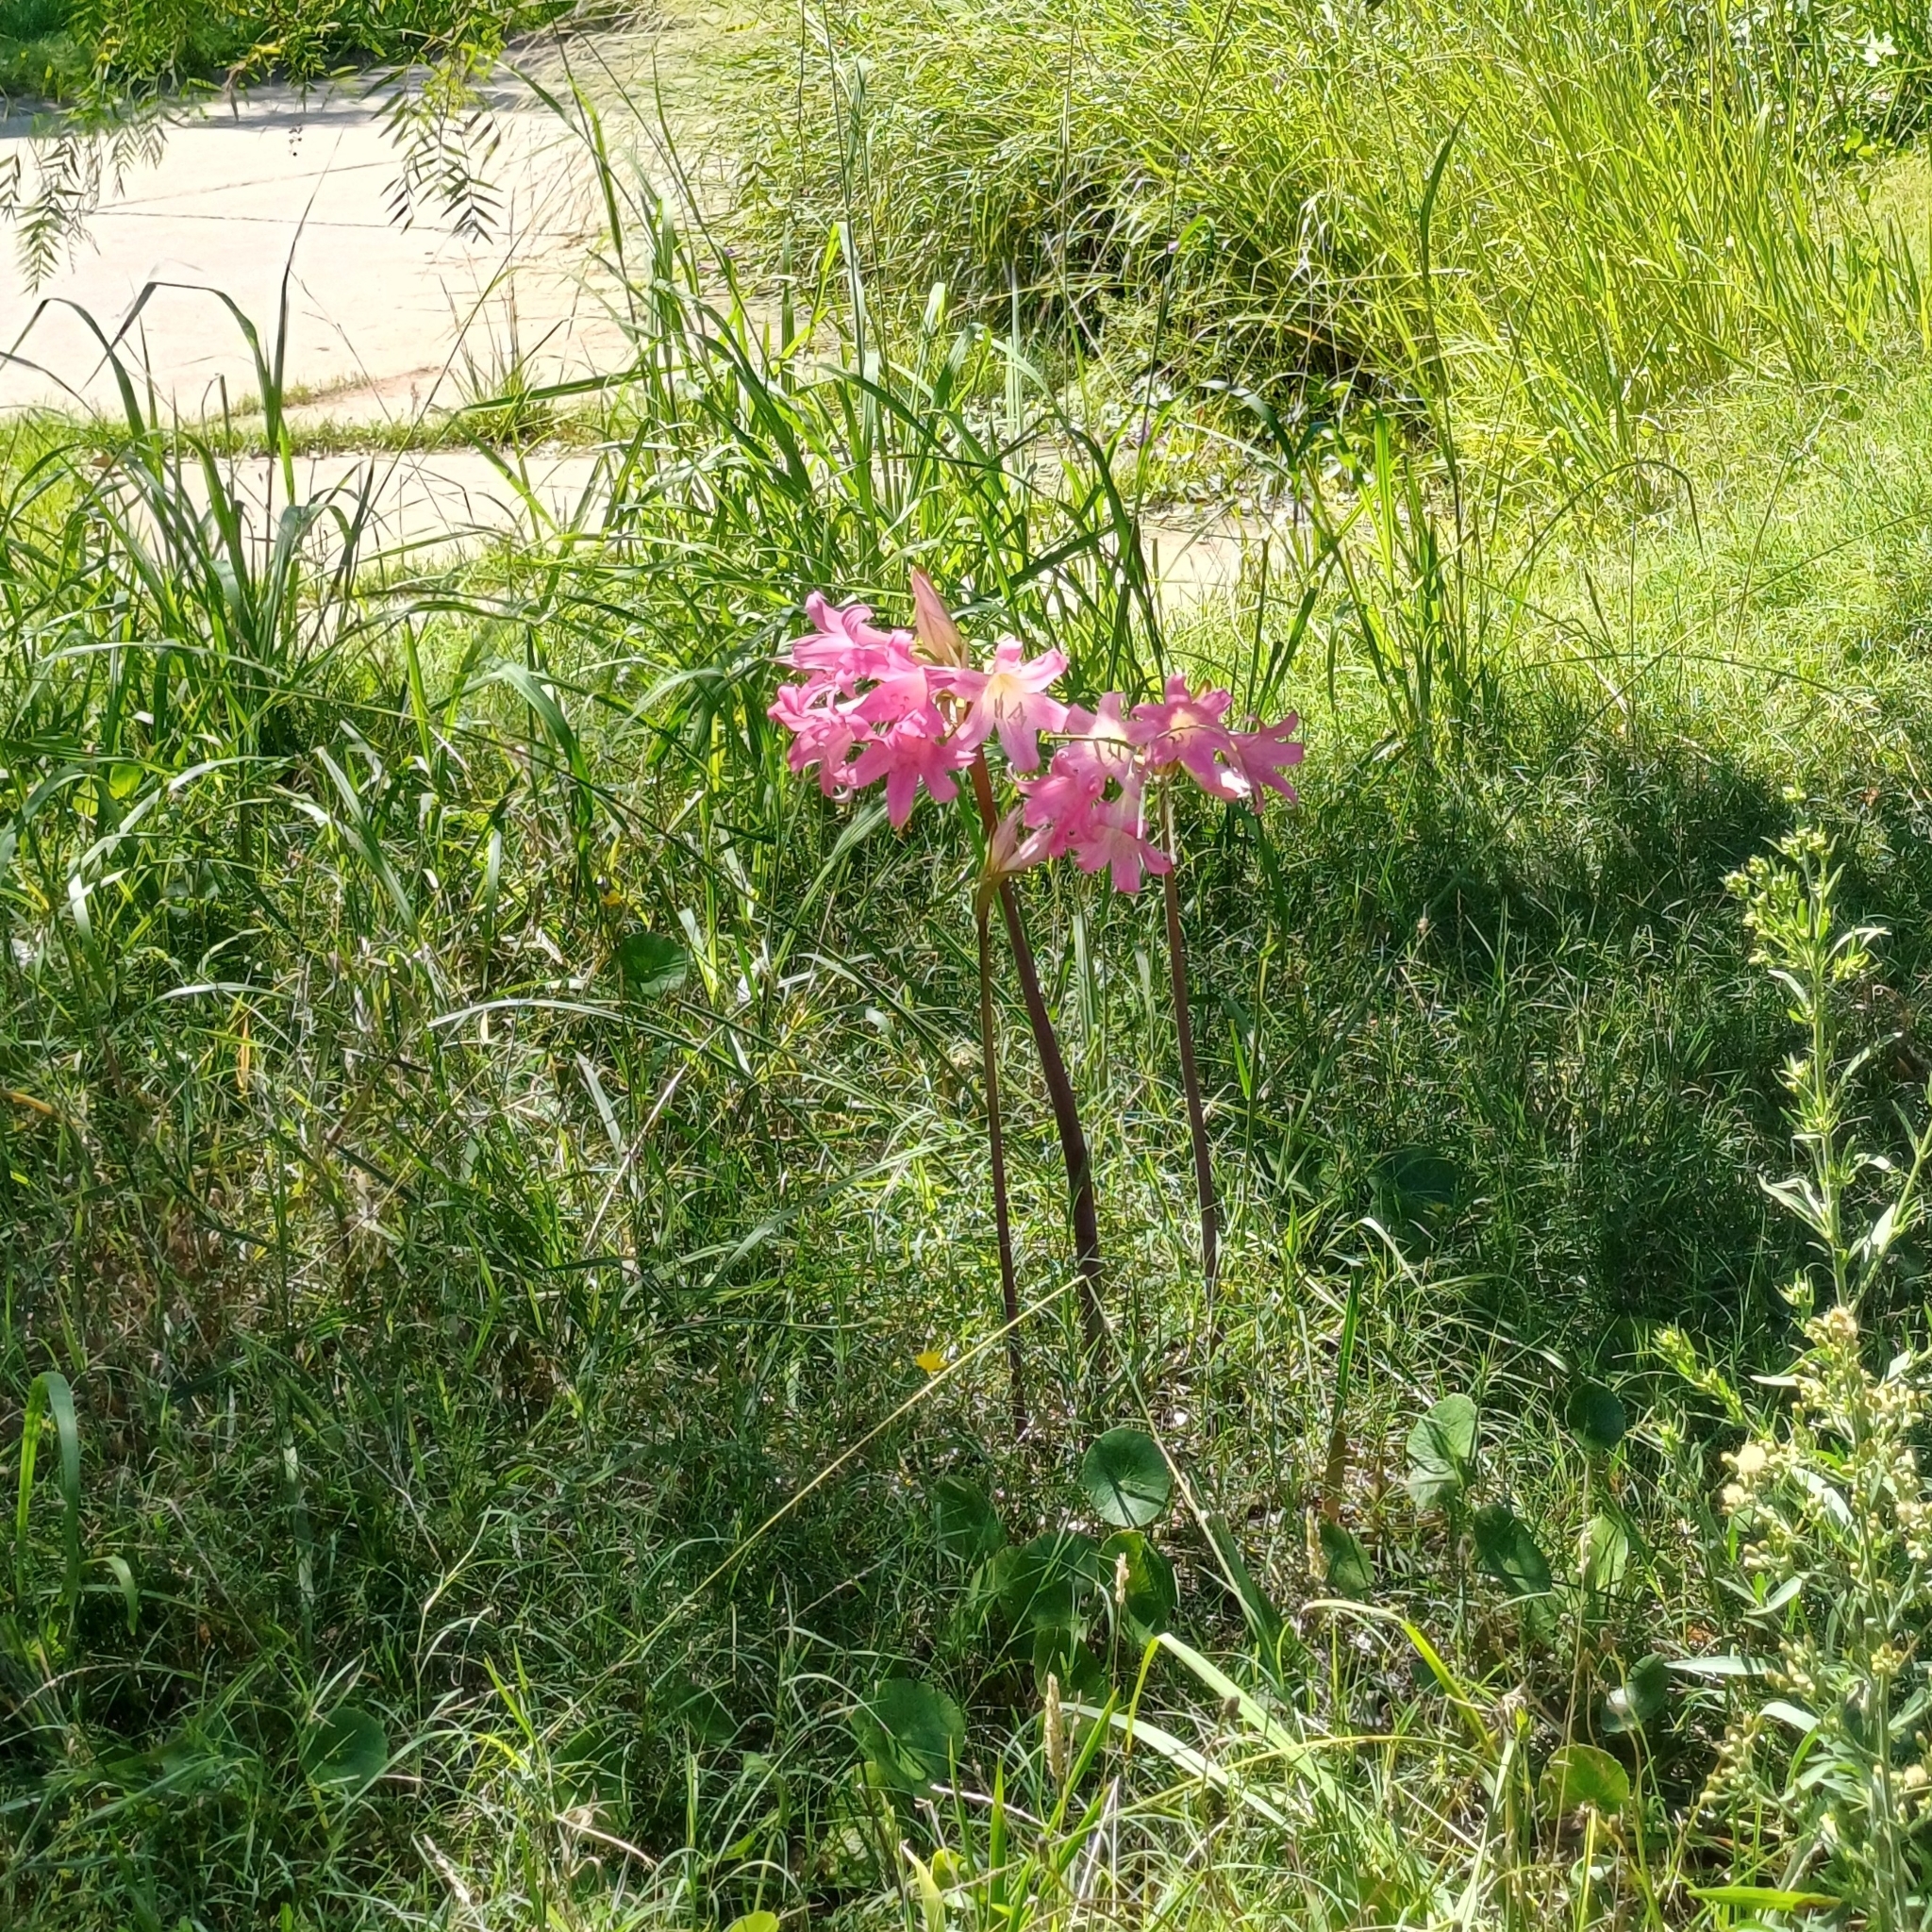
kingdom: Plantae
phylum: Tracheophyta
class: Liliopsida
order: Asparagales
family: Amaryllidaceae
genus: Amaryllis
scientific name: Amaryllis belladonna
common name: Jersey lily
